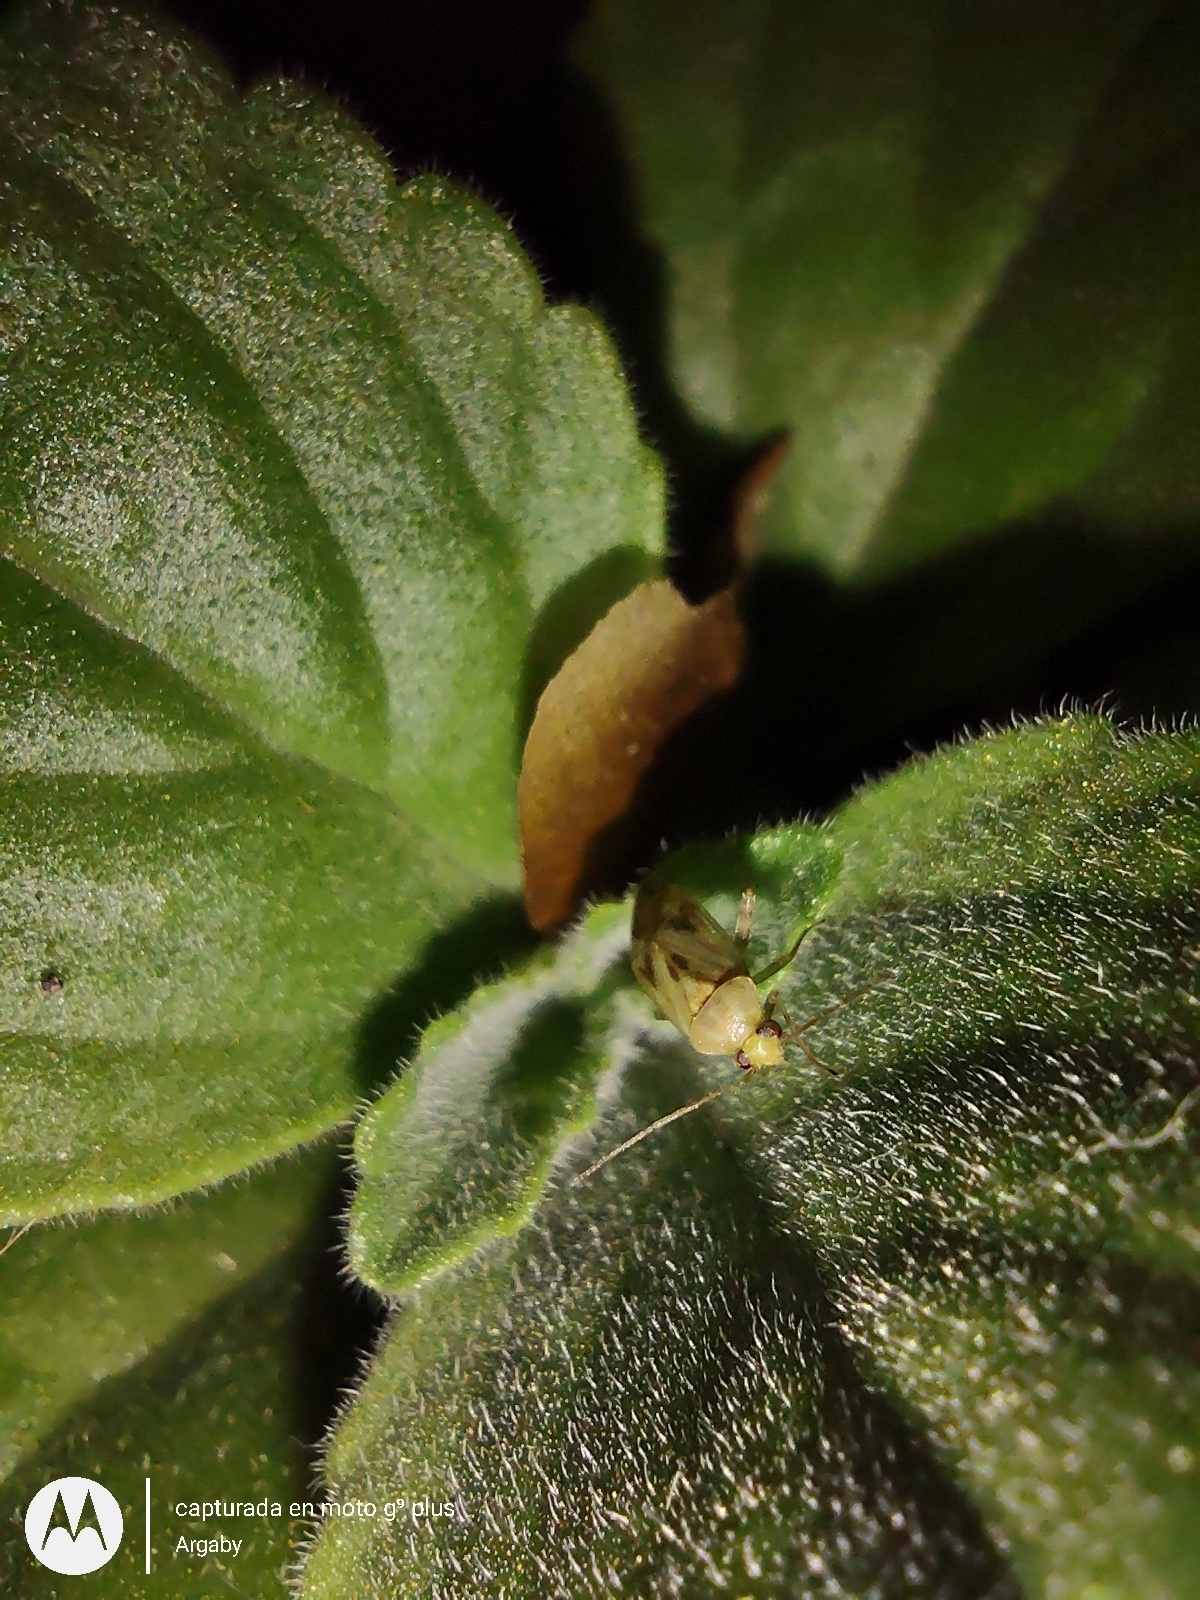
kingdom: Animalia
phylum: Arthropoda
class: Insecta
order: Hemiptera
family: Miridae
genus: Taylorilygus
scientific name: Taylorilygus apicalis
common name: Plant bug
